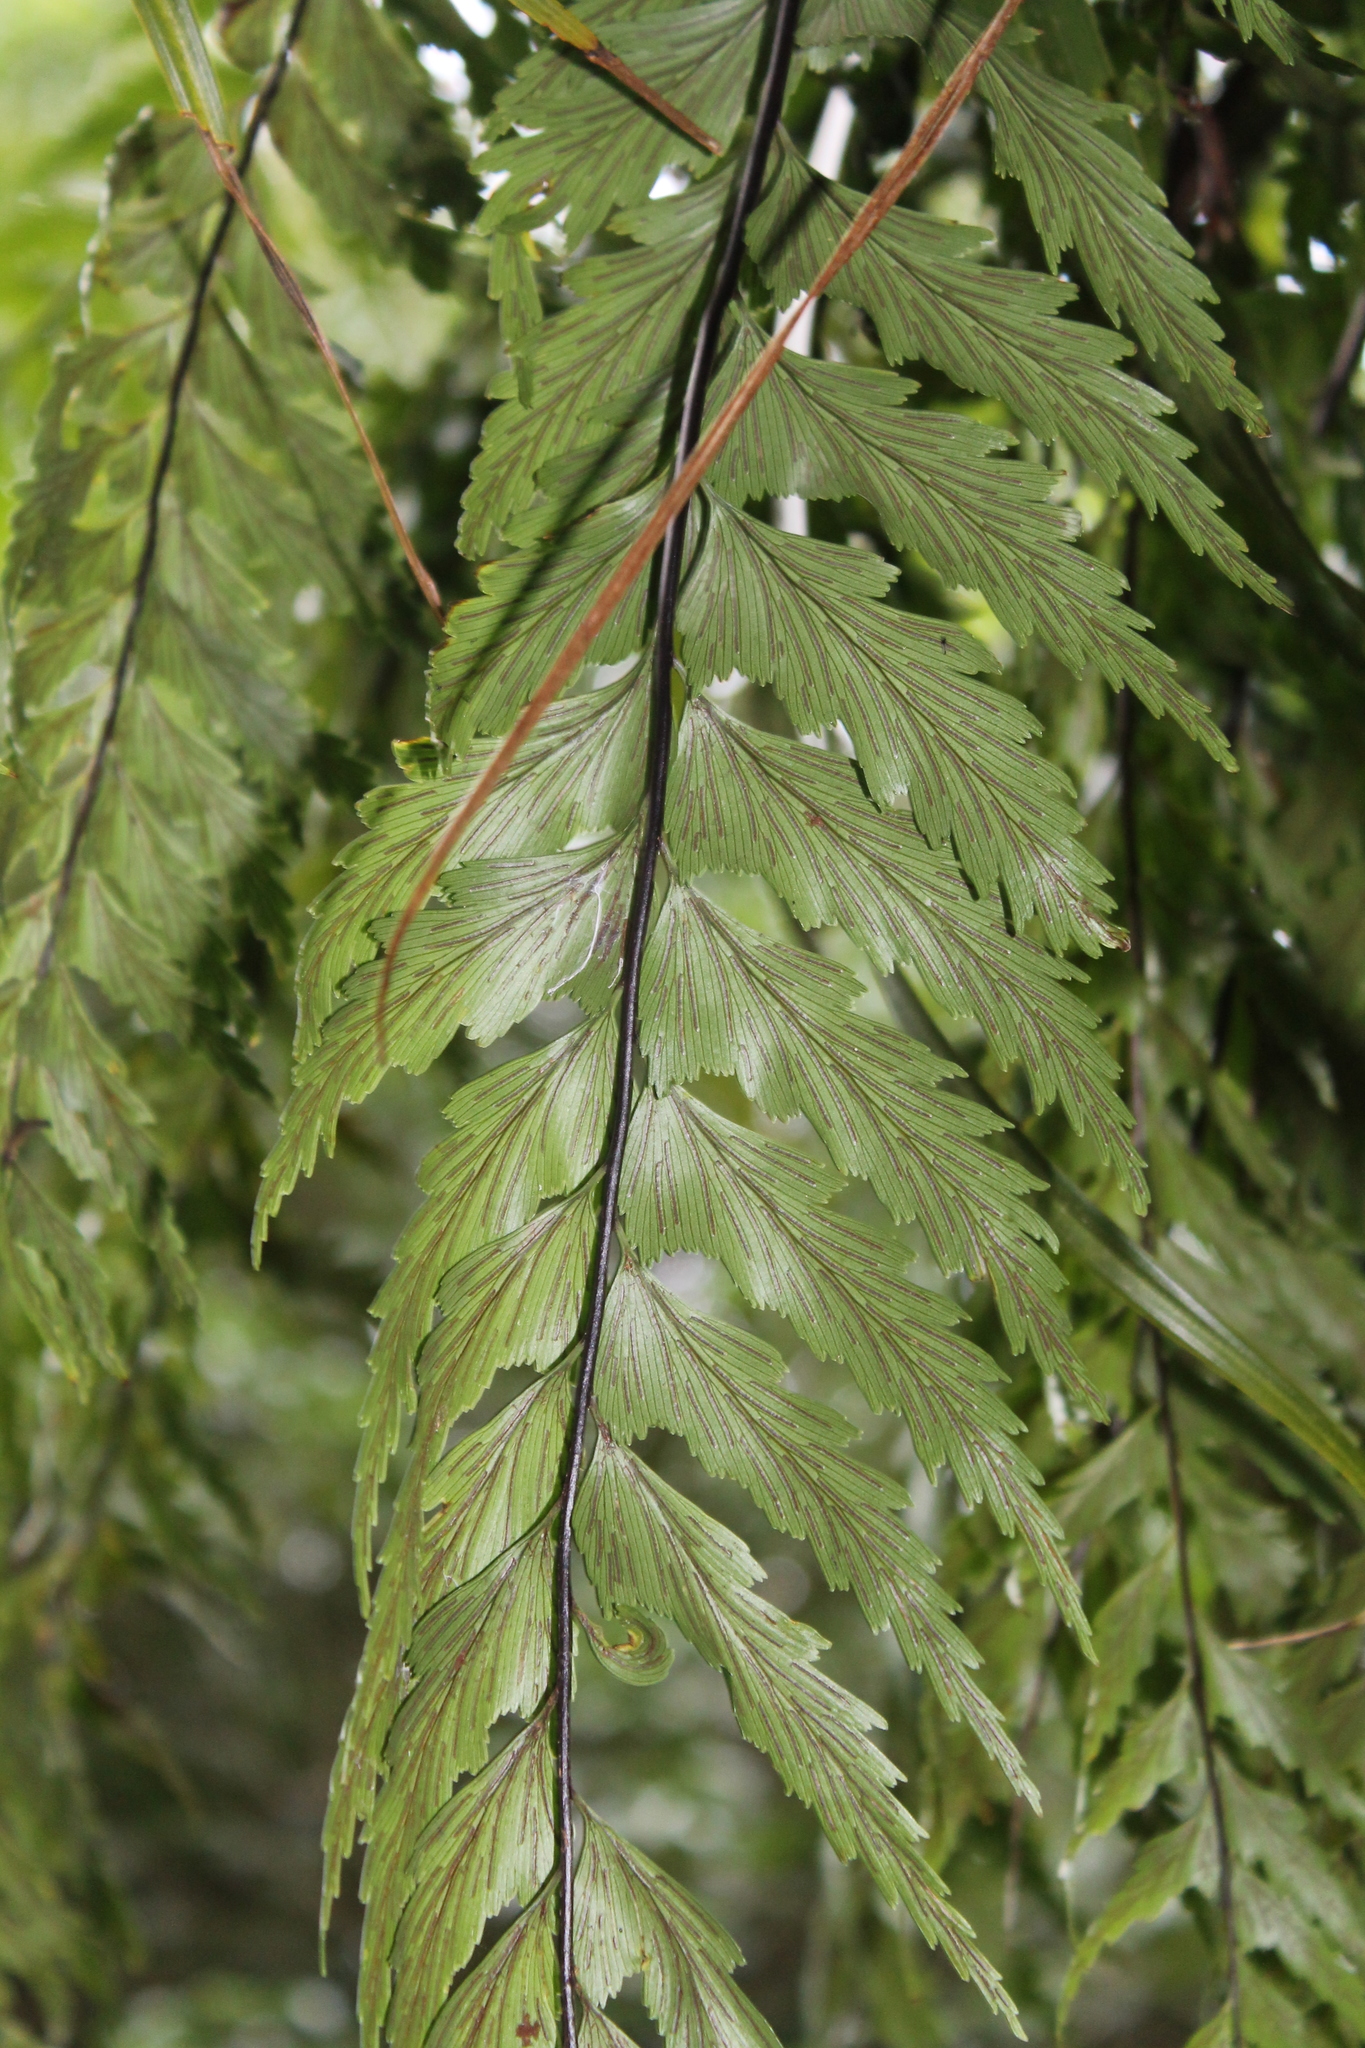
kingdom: Plantae
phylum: Tracheophyta
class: Polypodiopsida
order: Polypodiales
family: Aspleniaceae
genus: Asplenium
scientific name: Asplenium polyodon
